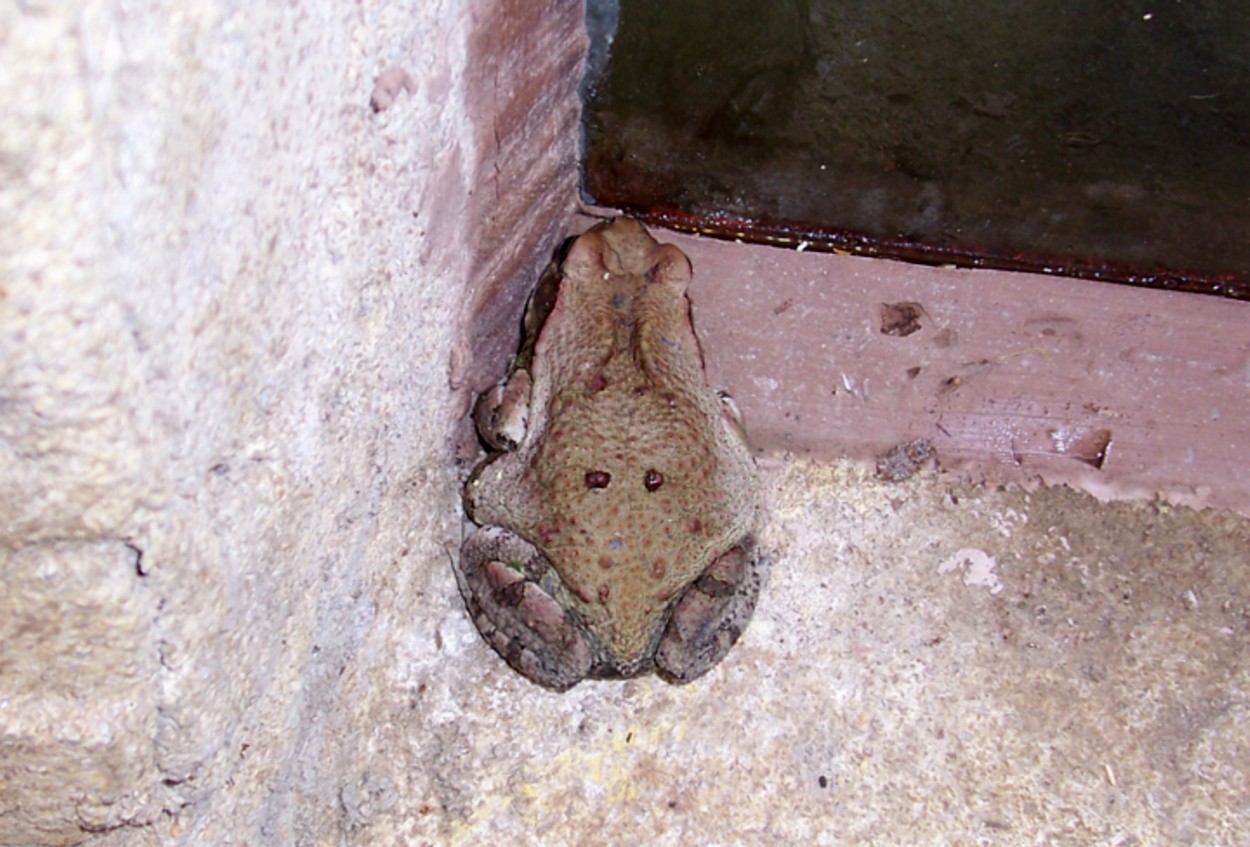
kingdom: Animalia
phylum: Chordata
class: Amphibia
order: Anura
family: Bufonidae
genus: Schismaderma
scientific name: Schismaderma carens
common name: African split-skin toad
